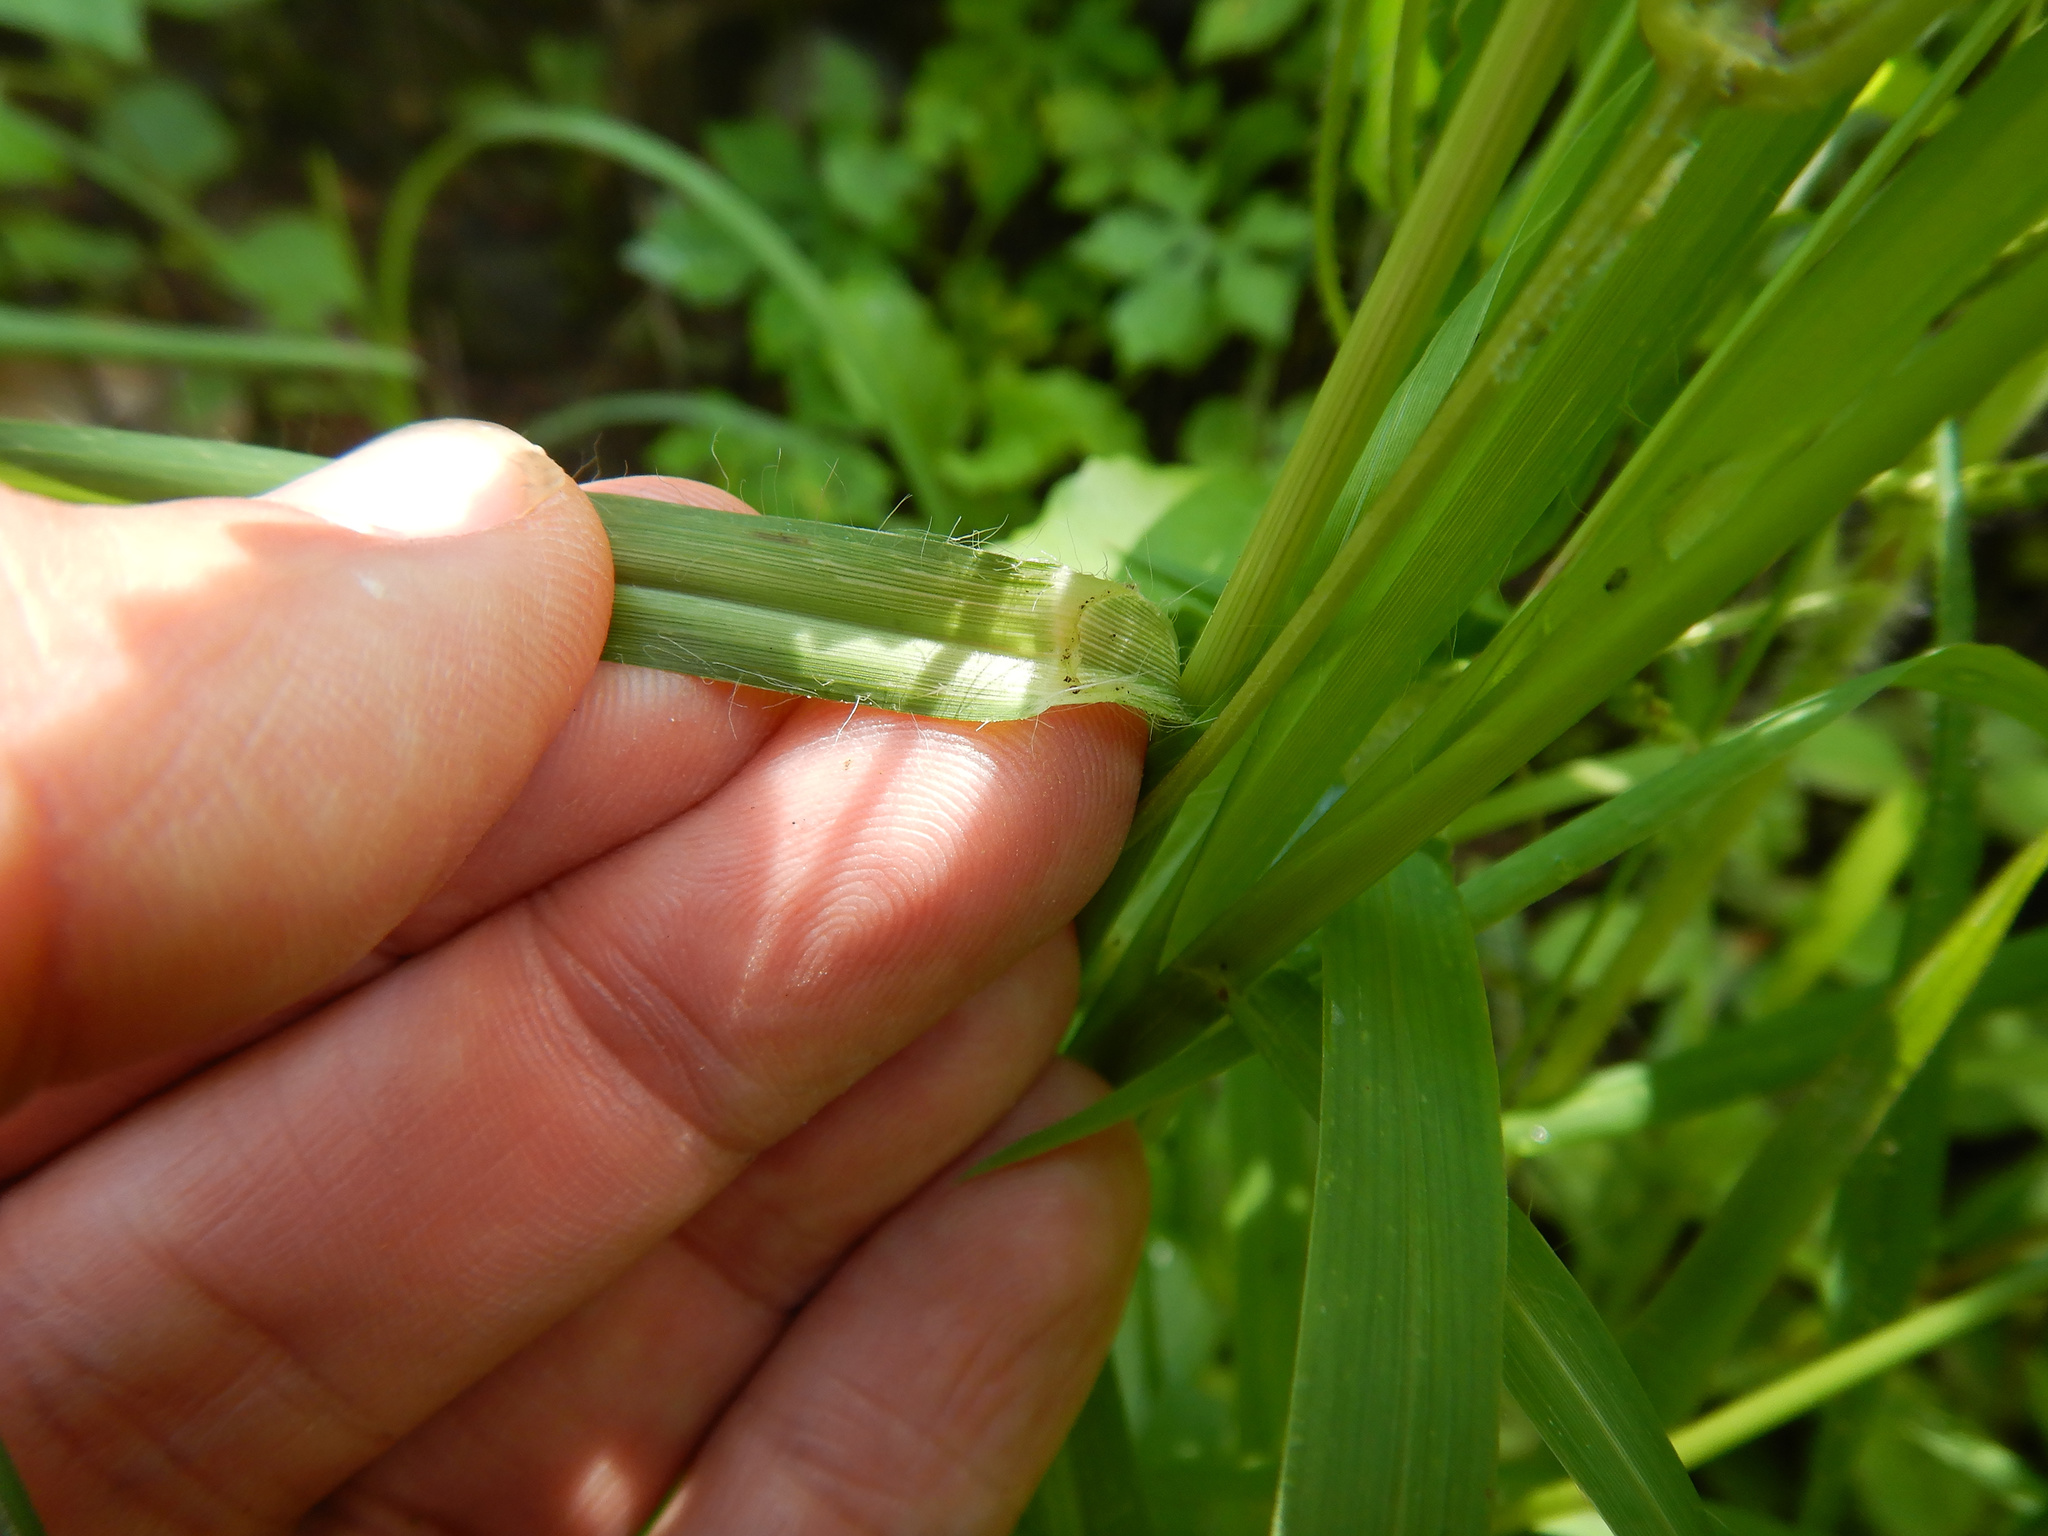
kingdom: Plantae
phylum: Tracheophyta
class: Liliopsida
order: Poales
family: Poaceae
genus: Eleusine
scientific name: Eleusine indica
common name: Yard-grass
